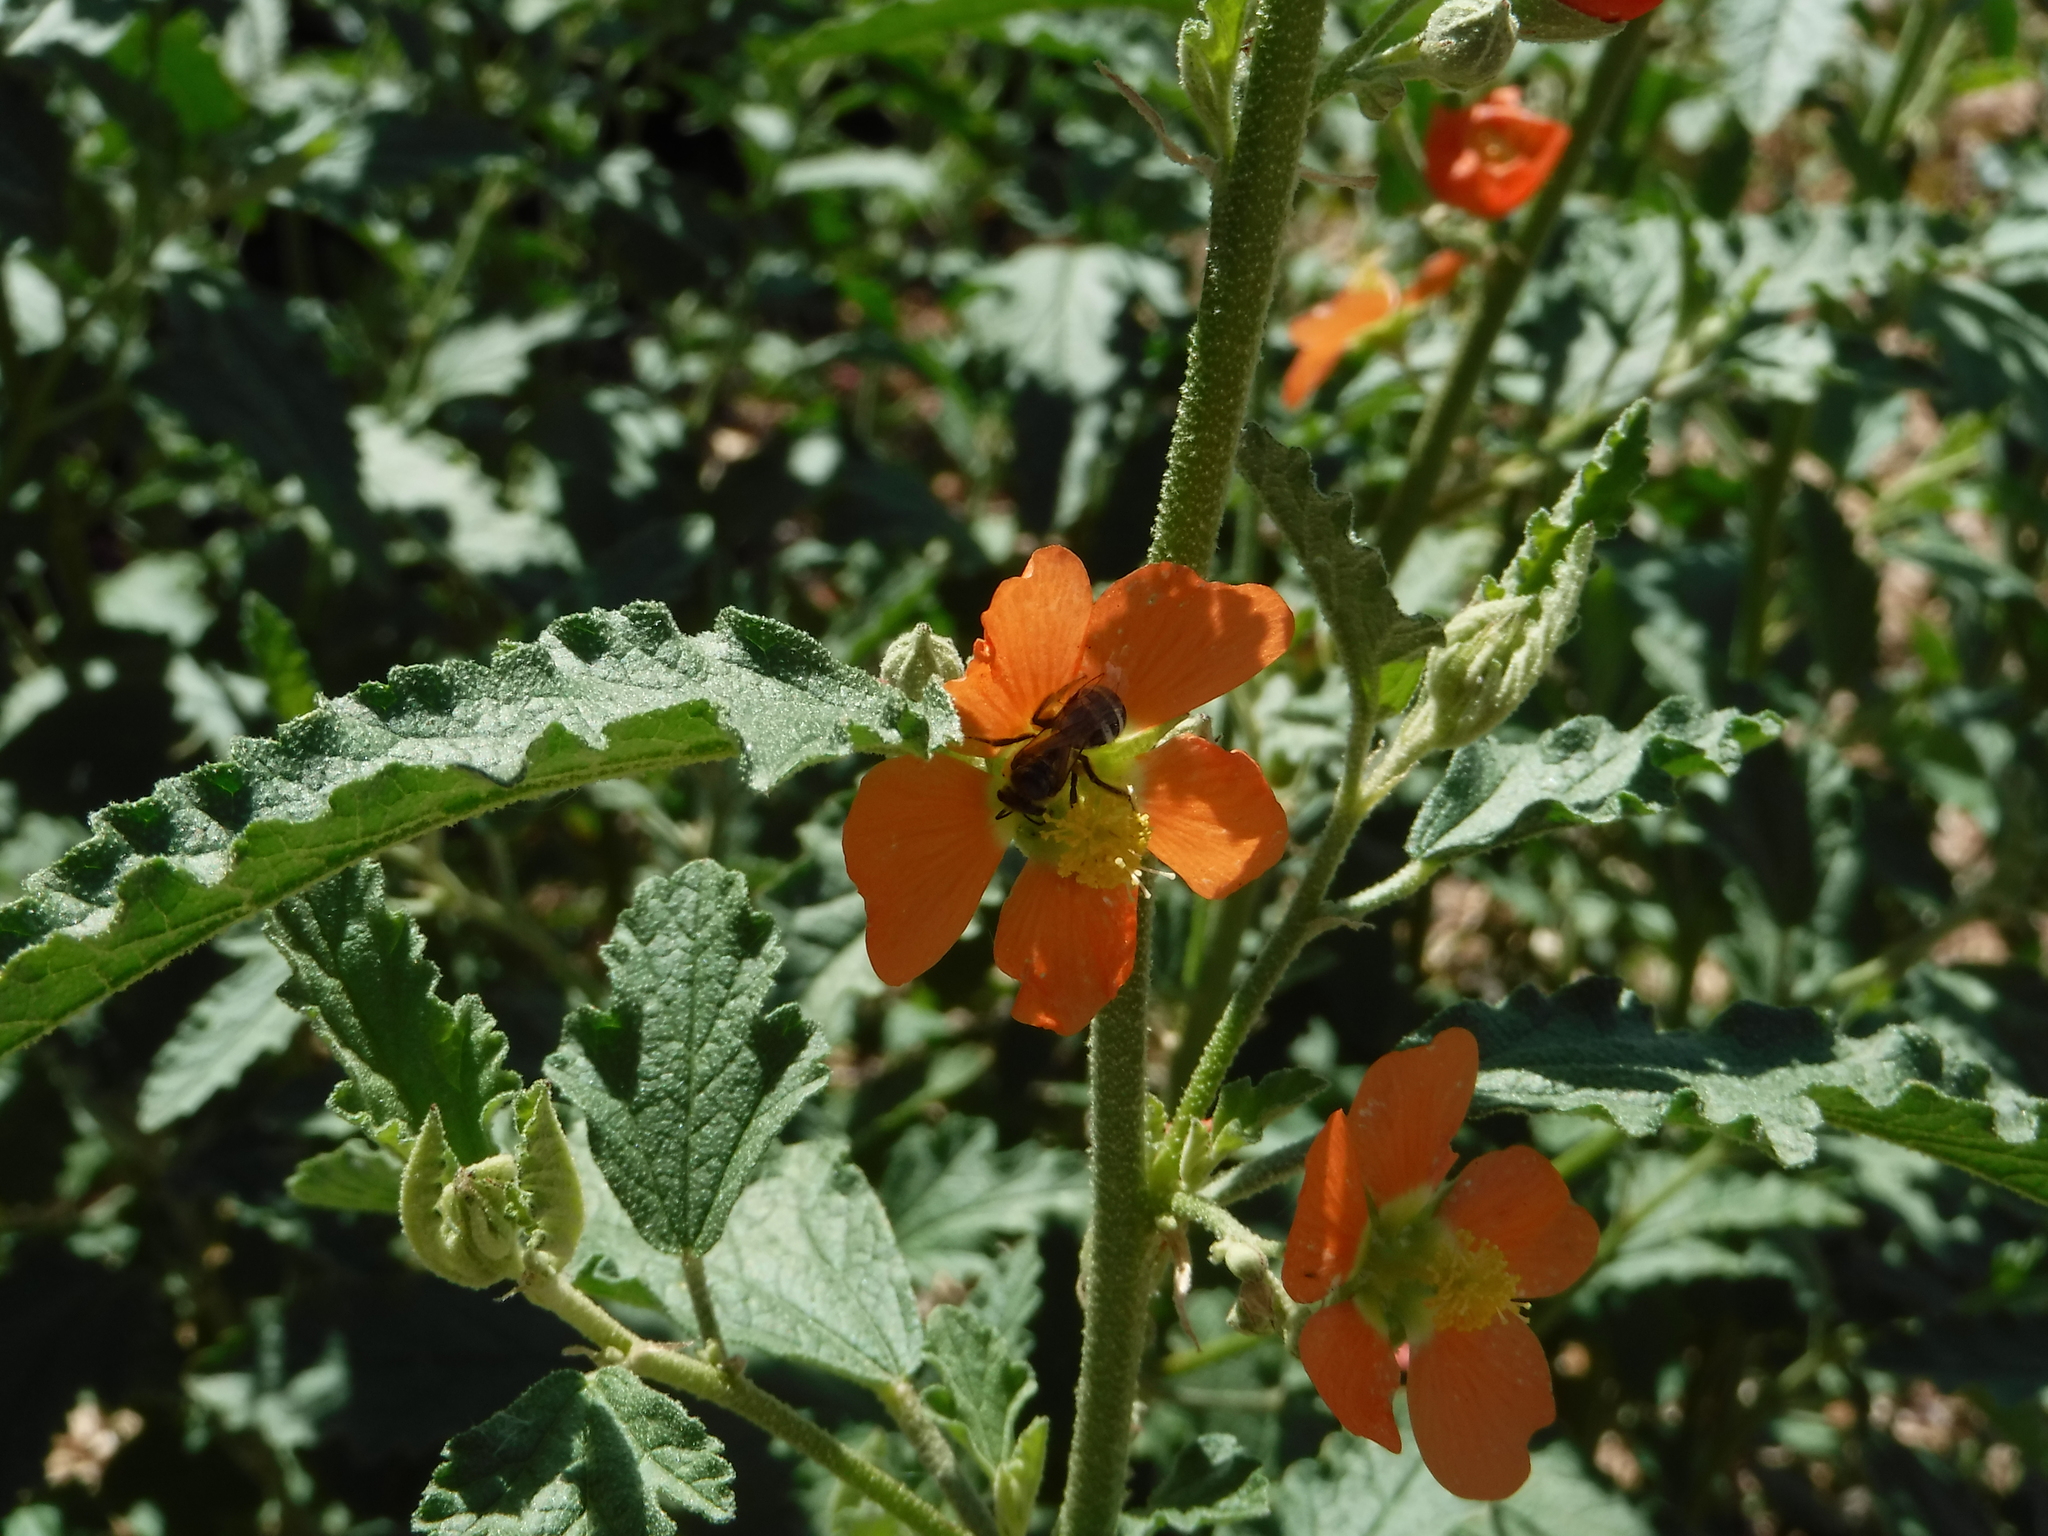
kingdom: Animalia
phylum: Arthropoda
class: Insecta
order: Hymenoptera
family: Halictidae
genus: Lasioglossum
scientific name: Lasioglossum sisymbrii
